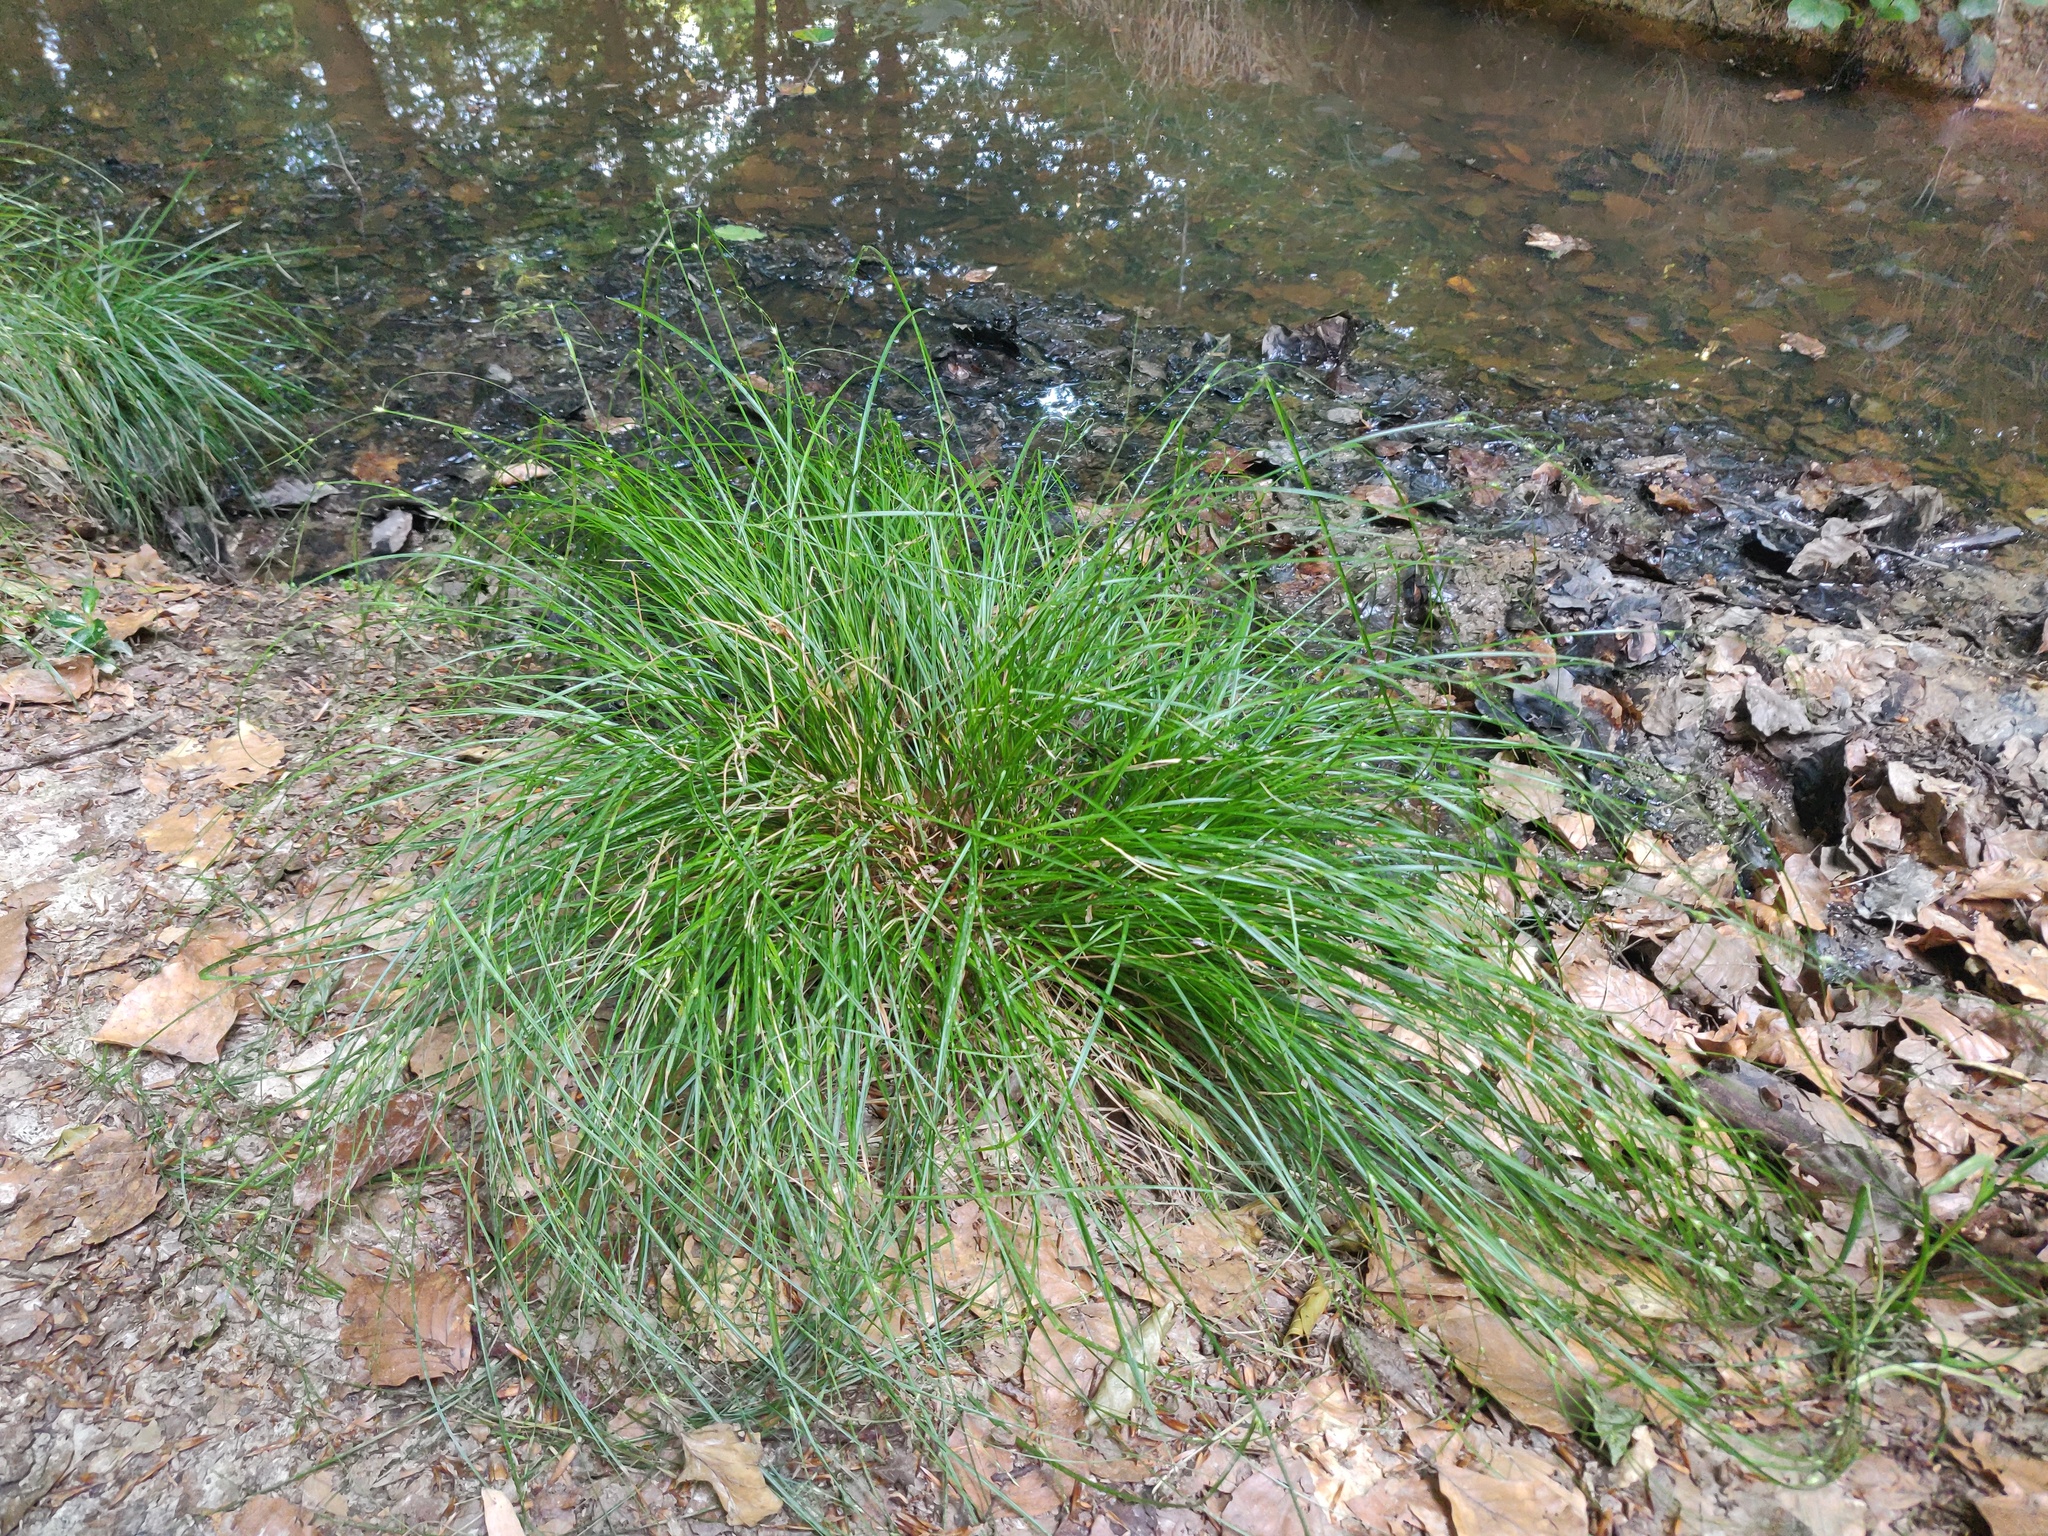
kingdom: Plantae
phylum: Tracheophyta
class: Liliopsida
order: Poales
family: Cyperaceae
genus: Carex
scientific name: Carex remota
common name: Remote sedge
